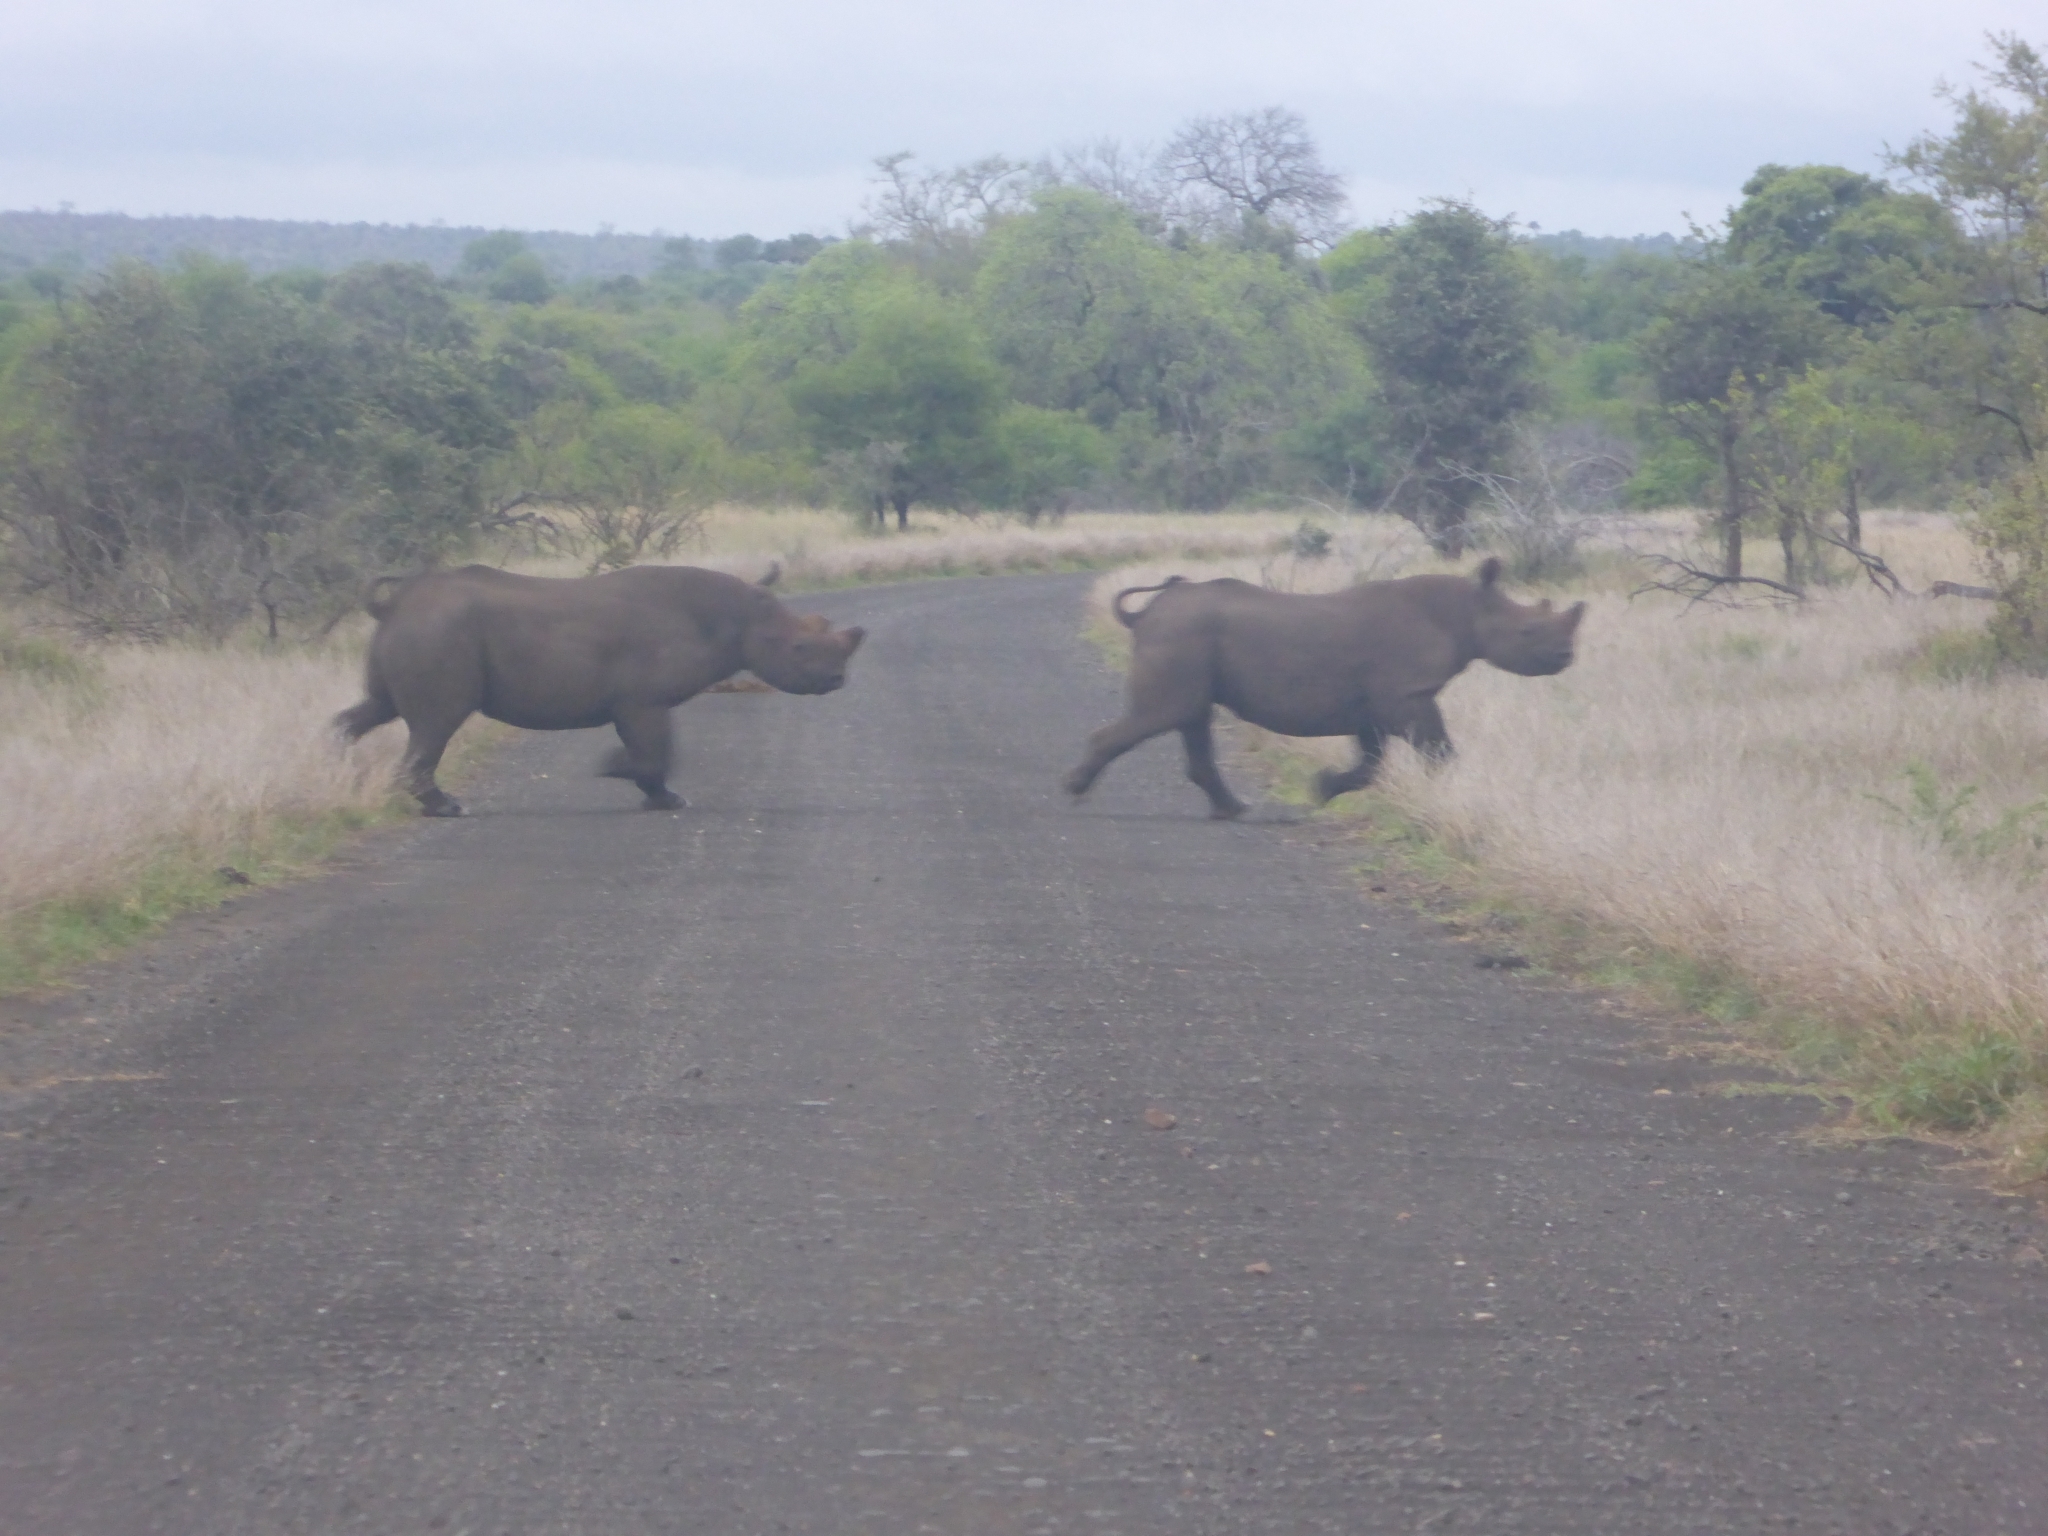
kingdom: Animalia
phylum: Chordata
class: Mammalia
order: Perissodactyla
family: Rhinocerotidae
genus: Diceros
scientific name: Diceros bicornis
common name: Black rhinoceros
